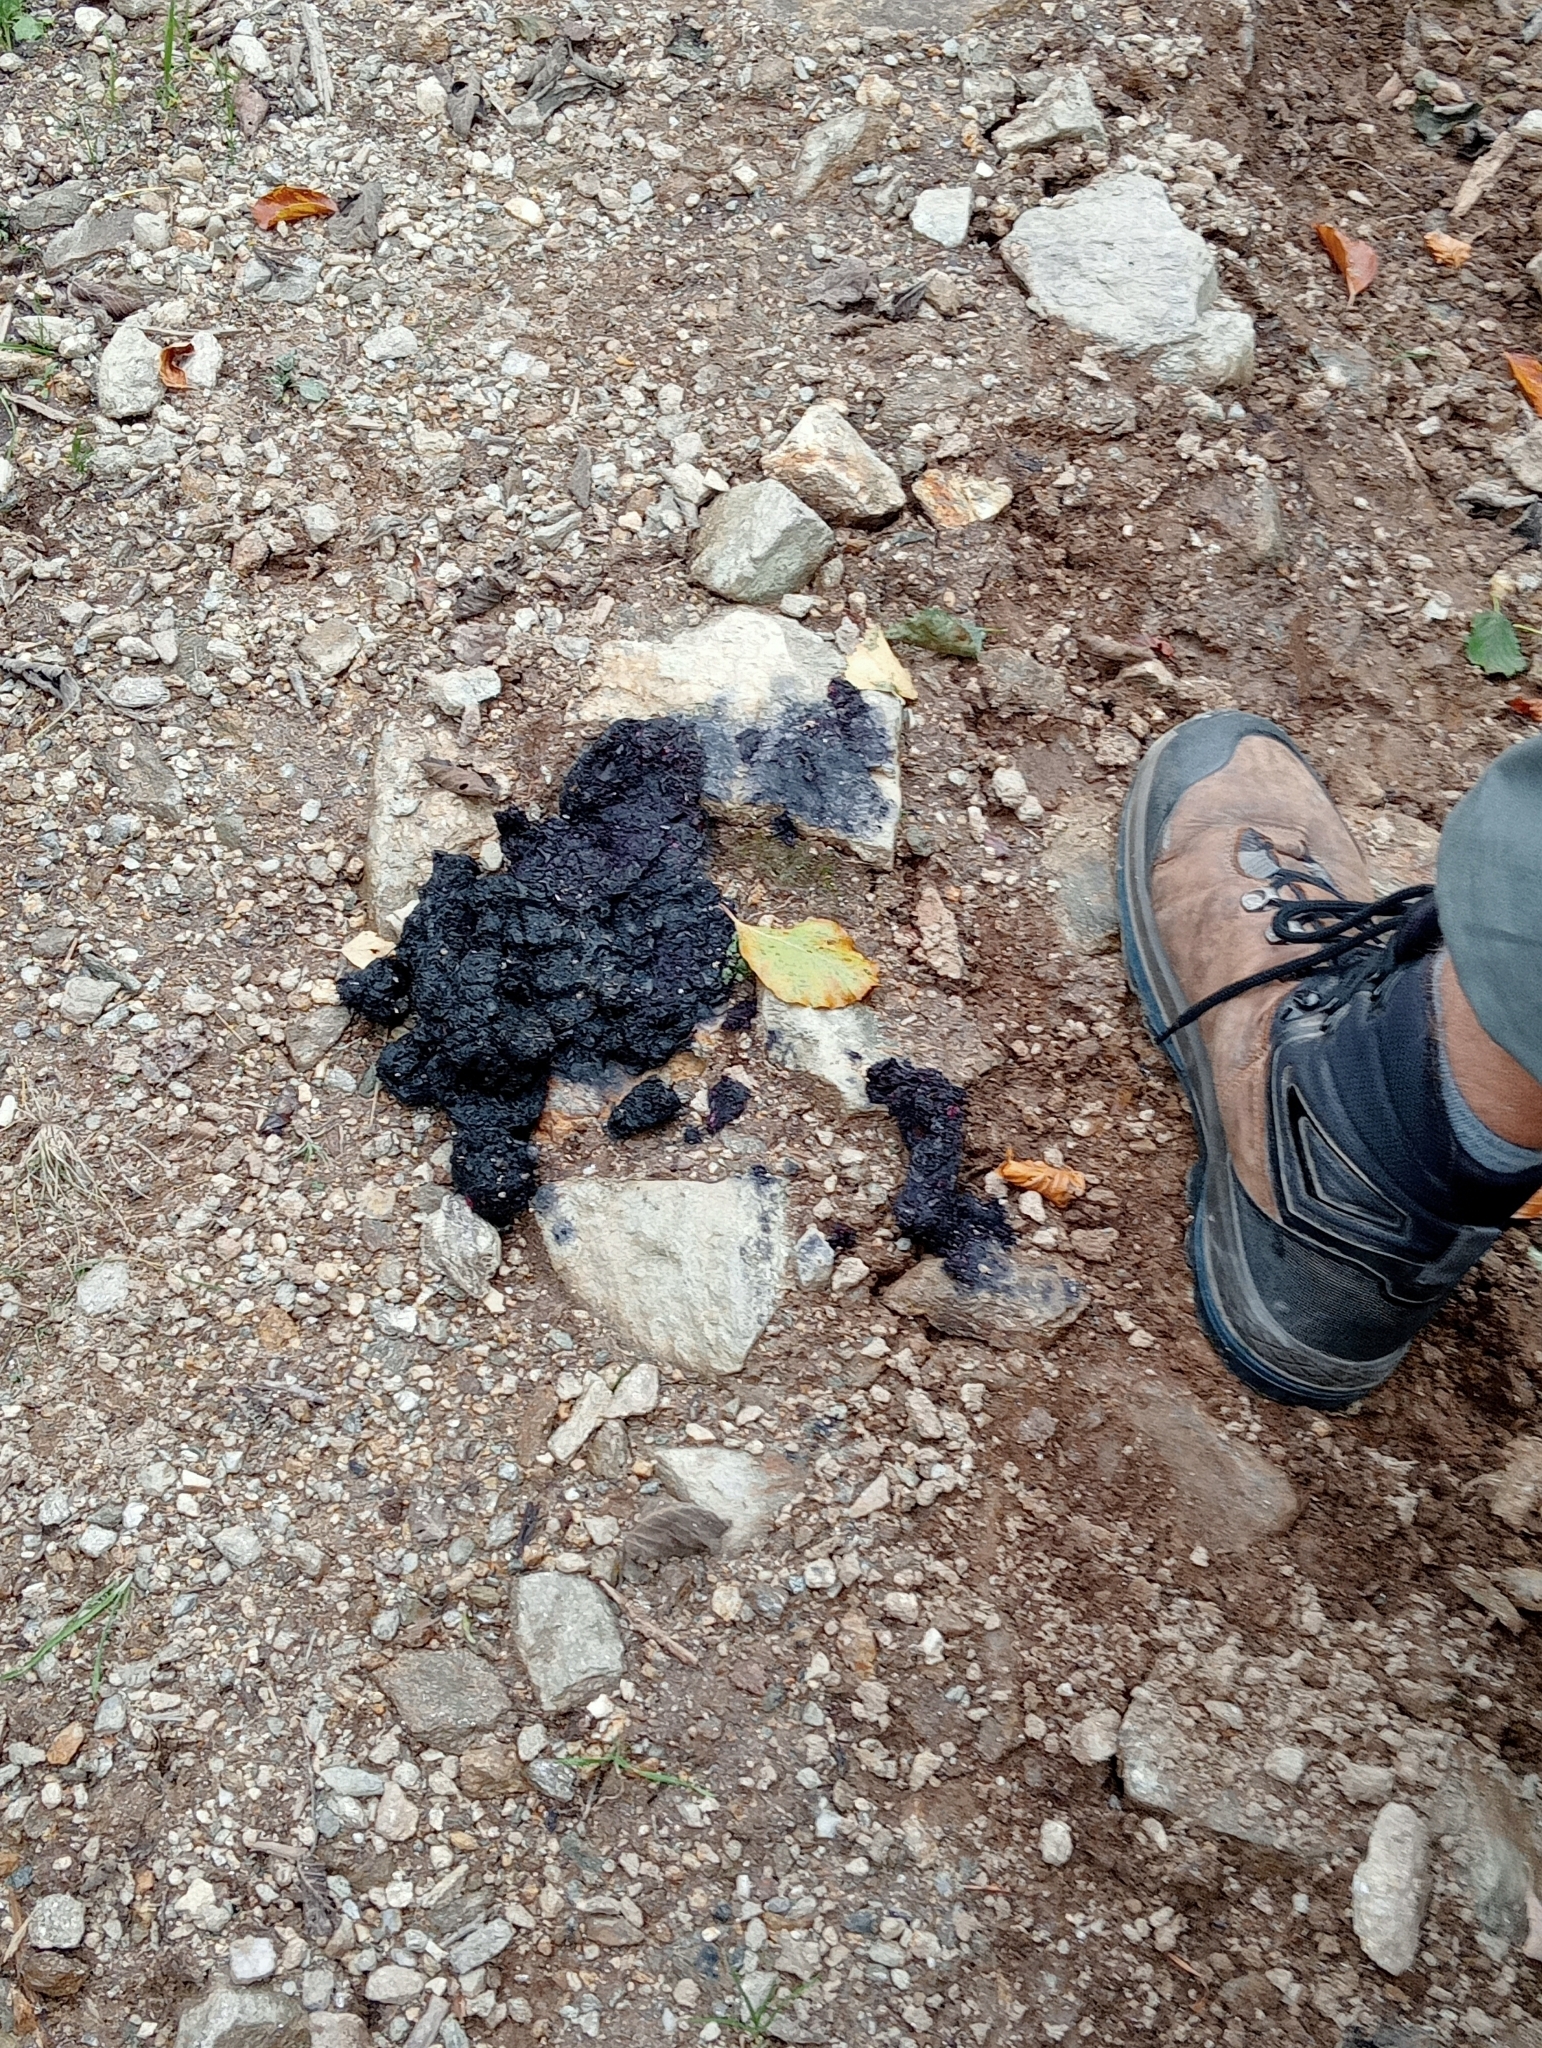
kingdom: Animalia
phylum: Chordata
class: Mammalia
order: Carnivora
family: Ursidae
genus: Ursus
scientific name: Ursus arctos
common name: Brown bear
